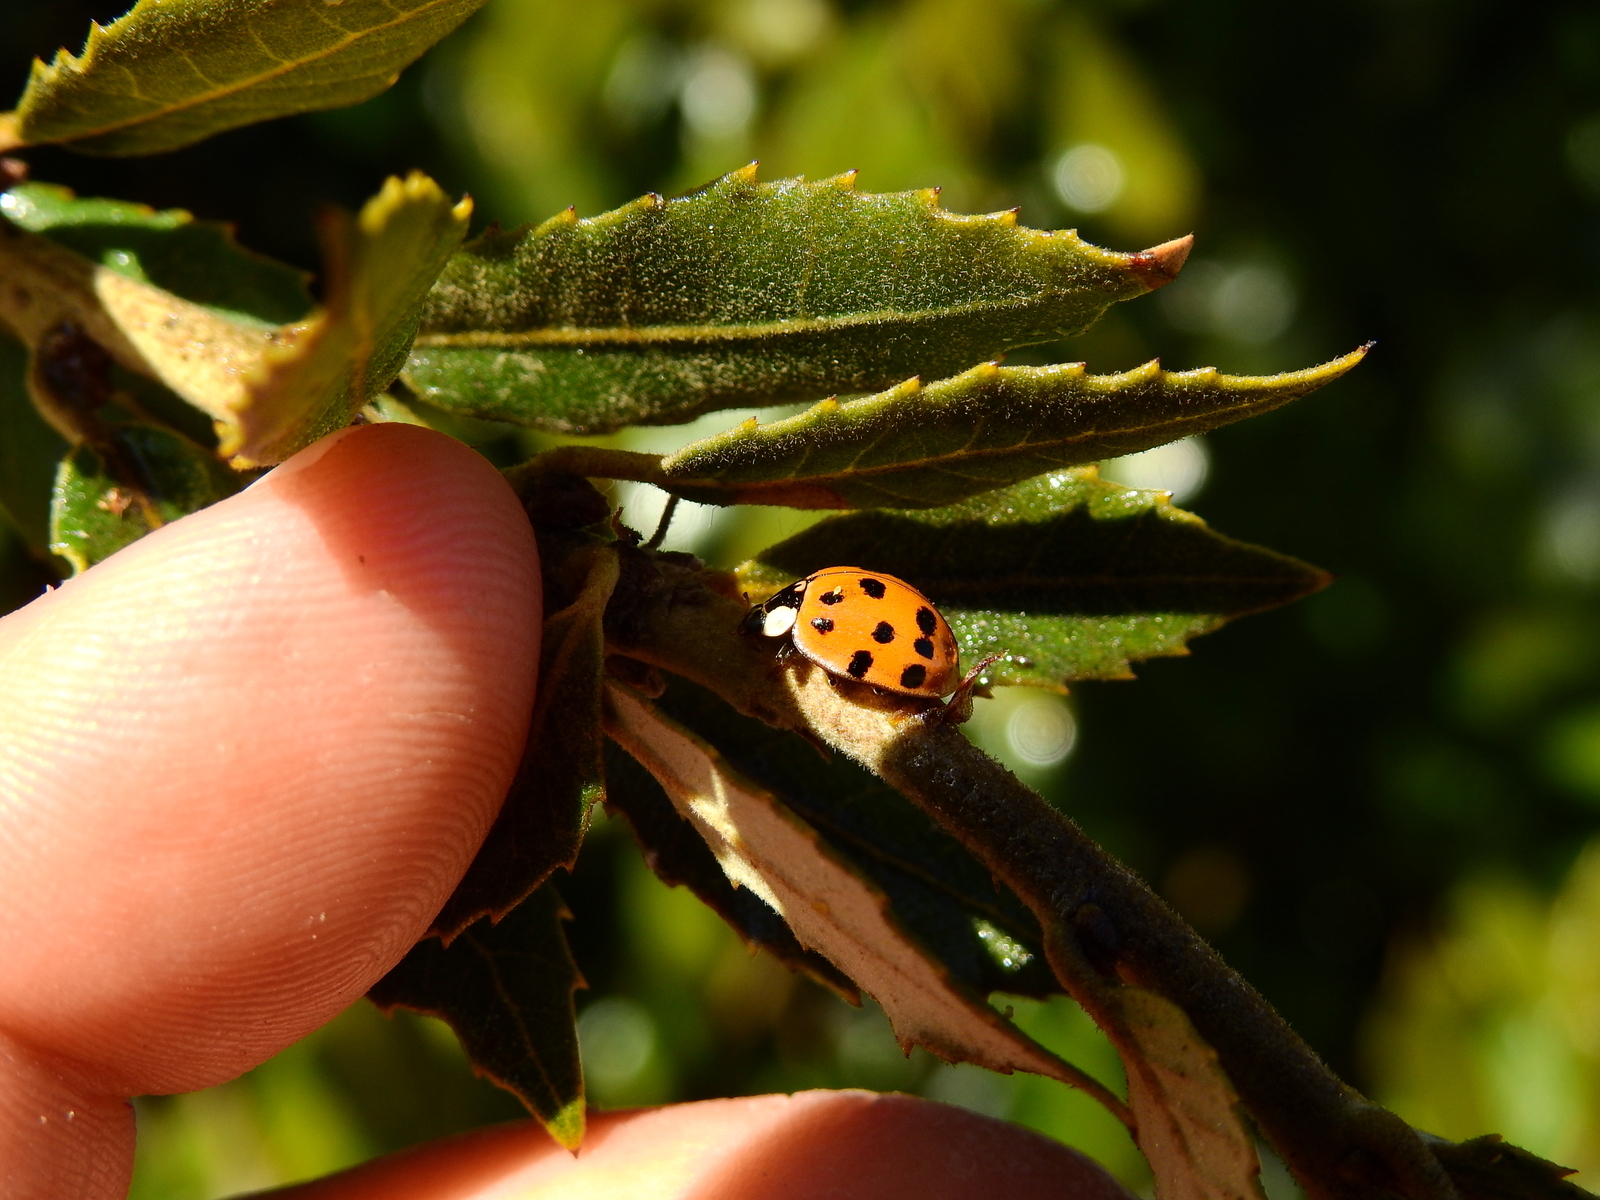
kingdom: Animalia
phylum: Arthropoda
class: Insecta
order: Coleoptera
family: Coccinellidae
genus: Harmonia
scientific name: Harmonia axyridis
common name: Harlequin ladybird
